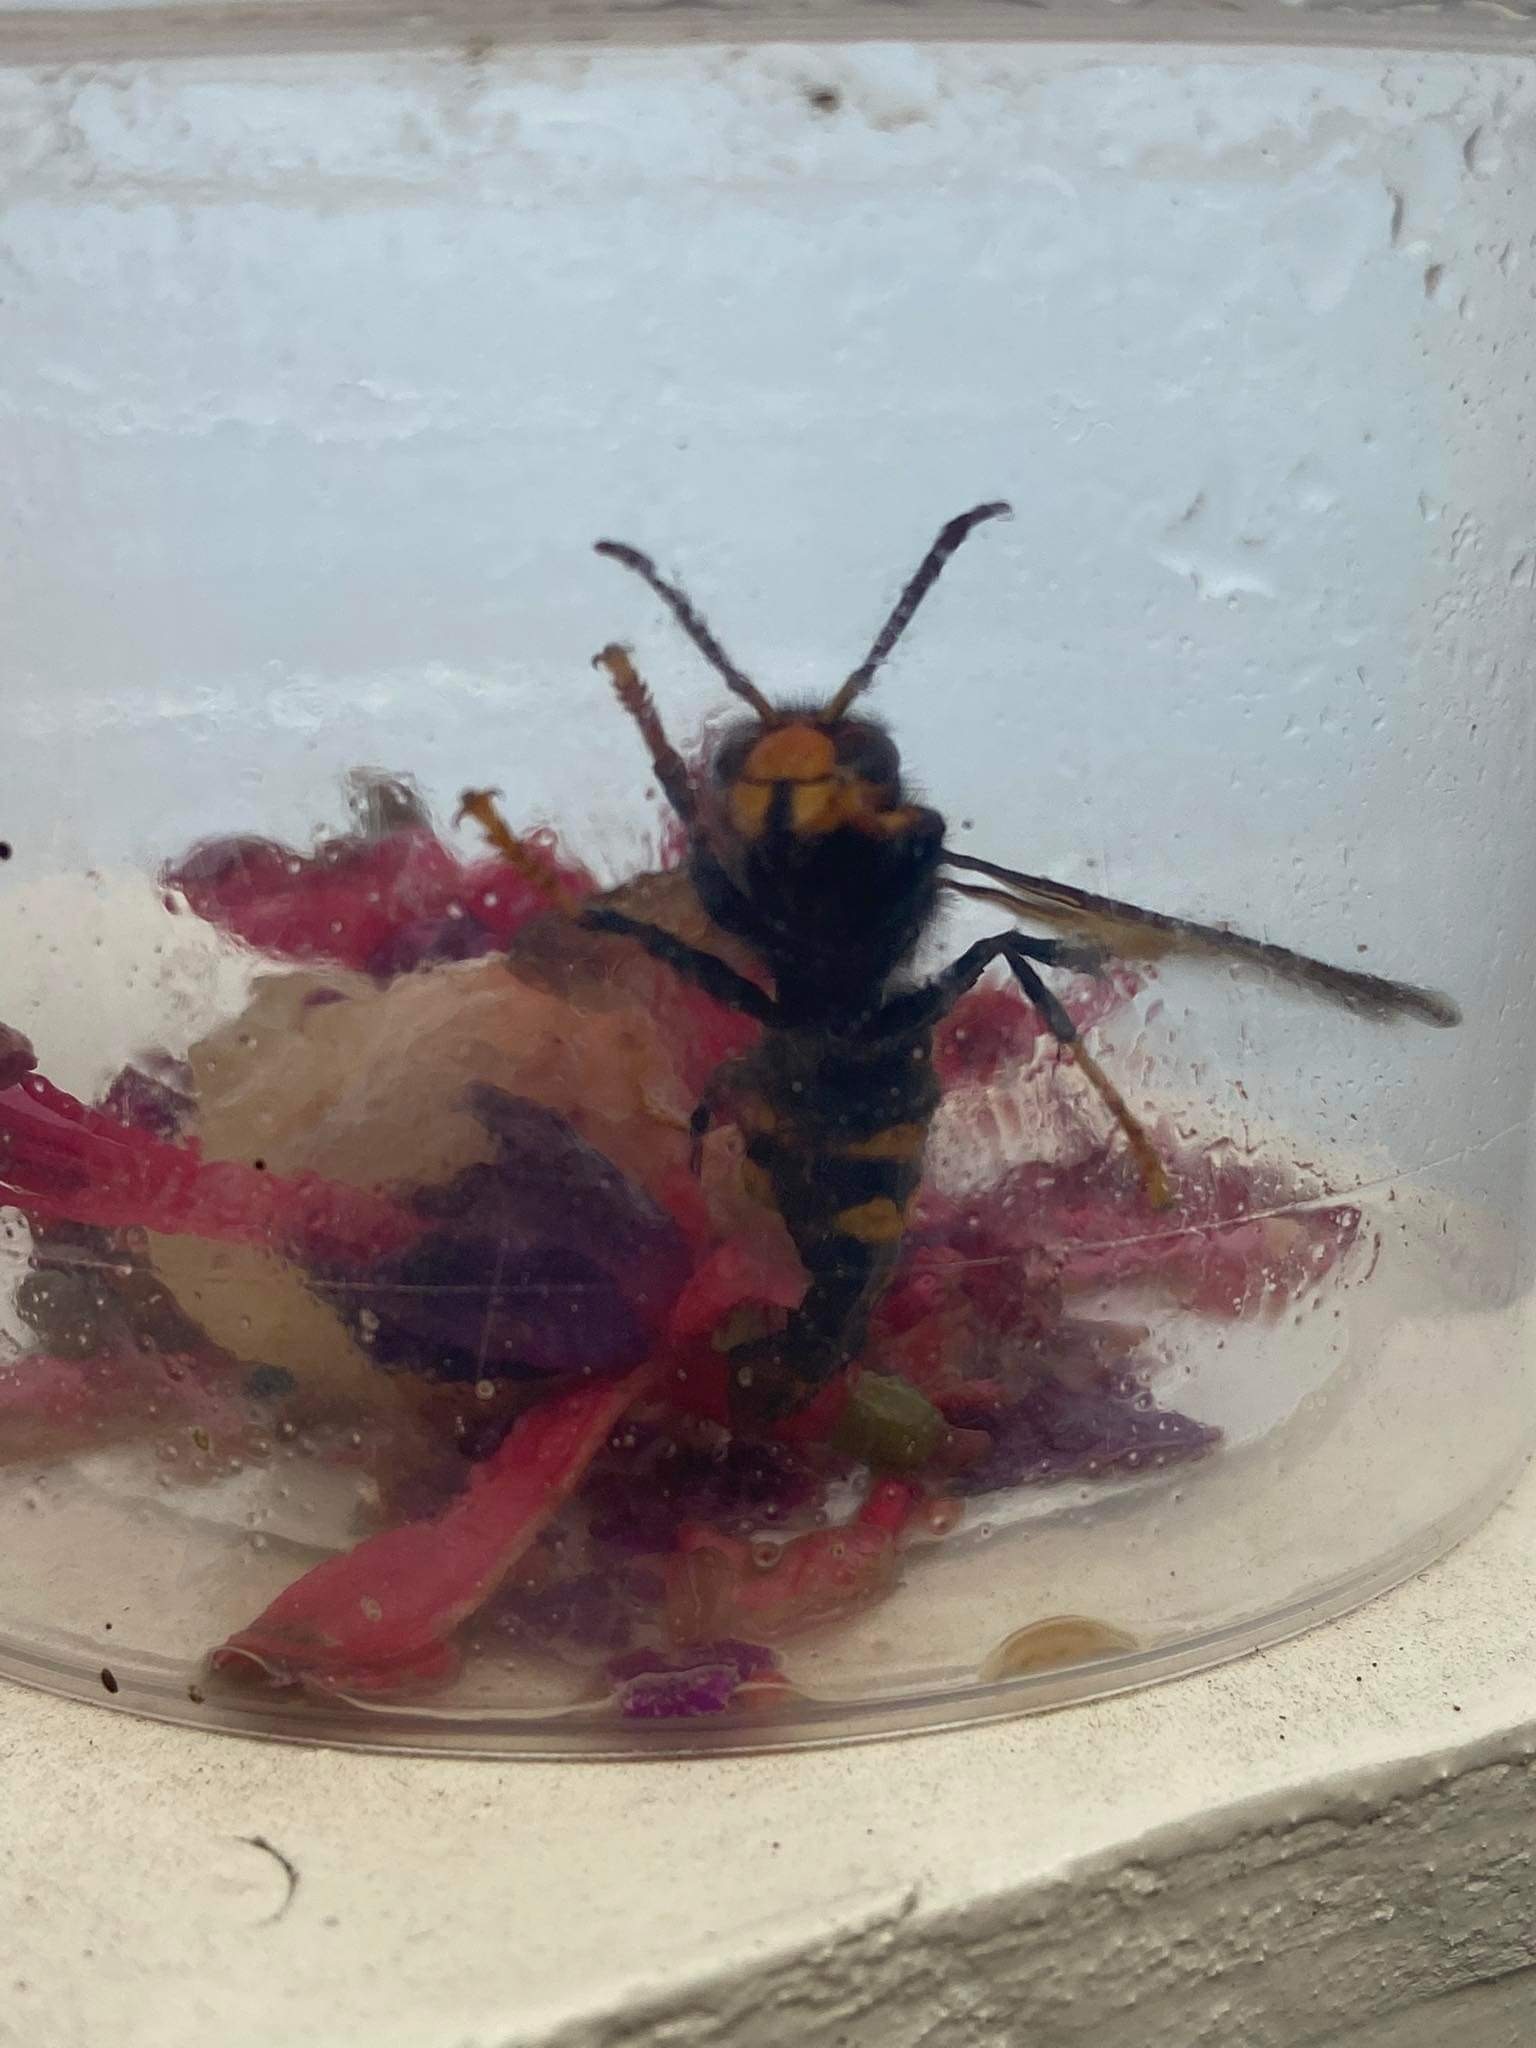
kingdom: Animalia
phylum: Arthropoda
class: Insecta
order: Hymenoptera
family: Vespidae
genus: Vespa
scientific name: Vespa velutina
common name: Asian hornet
